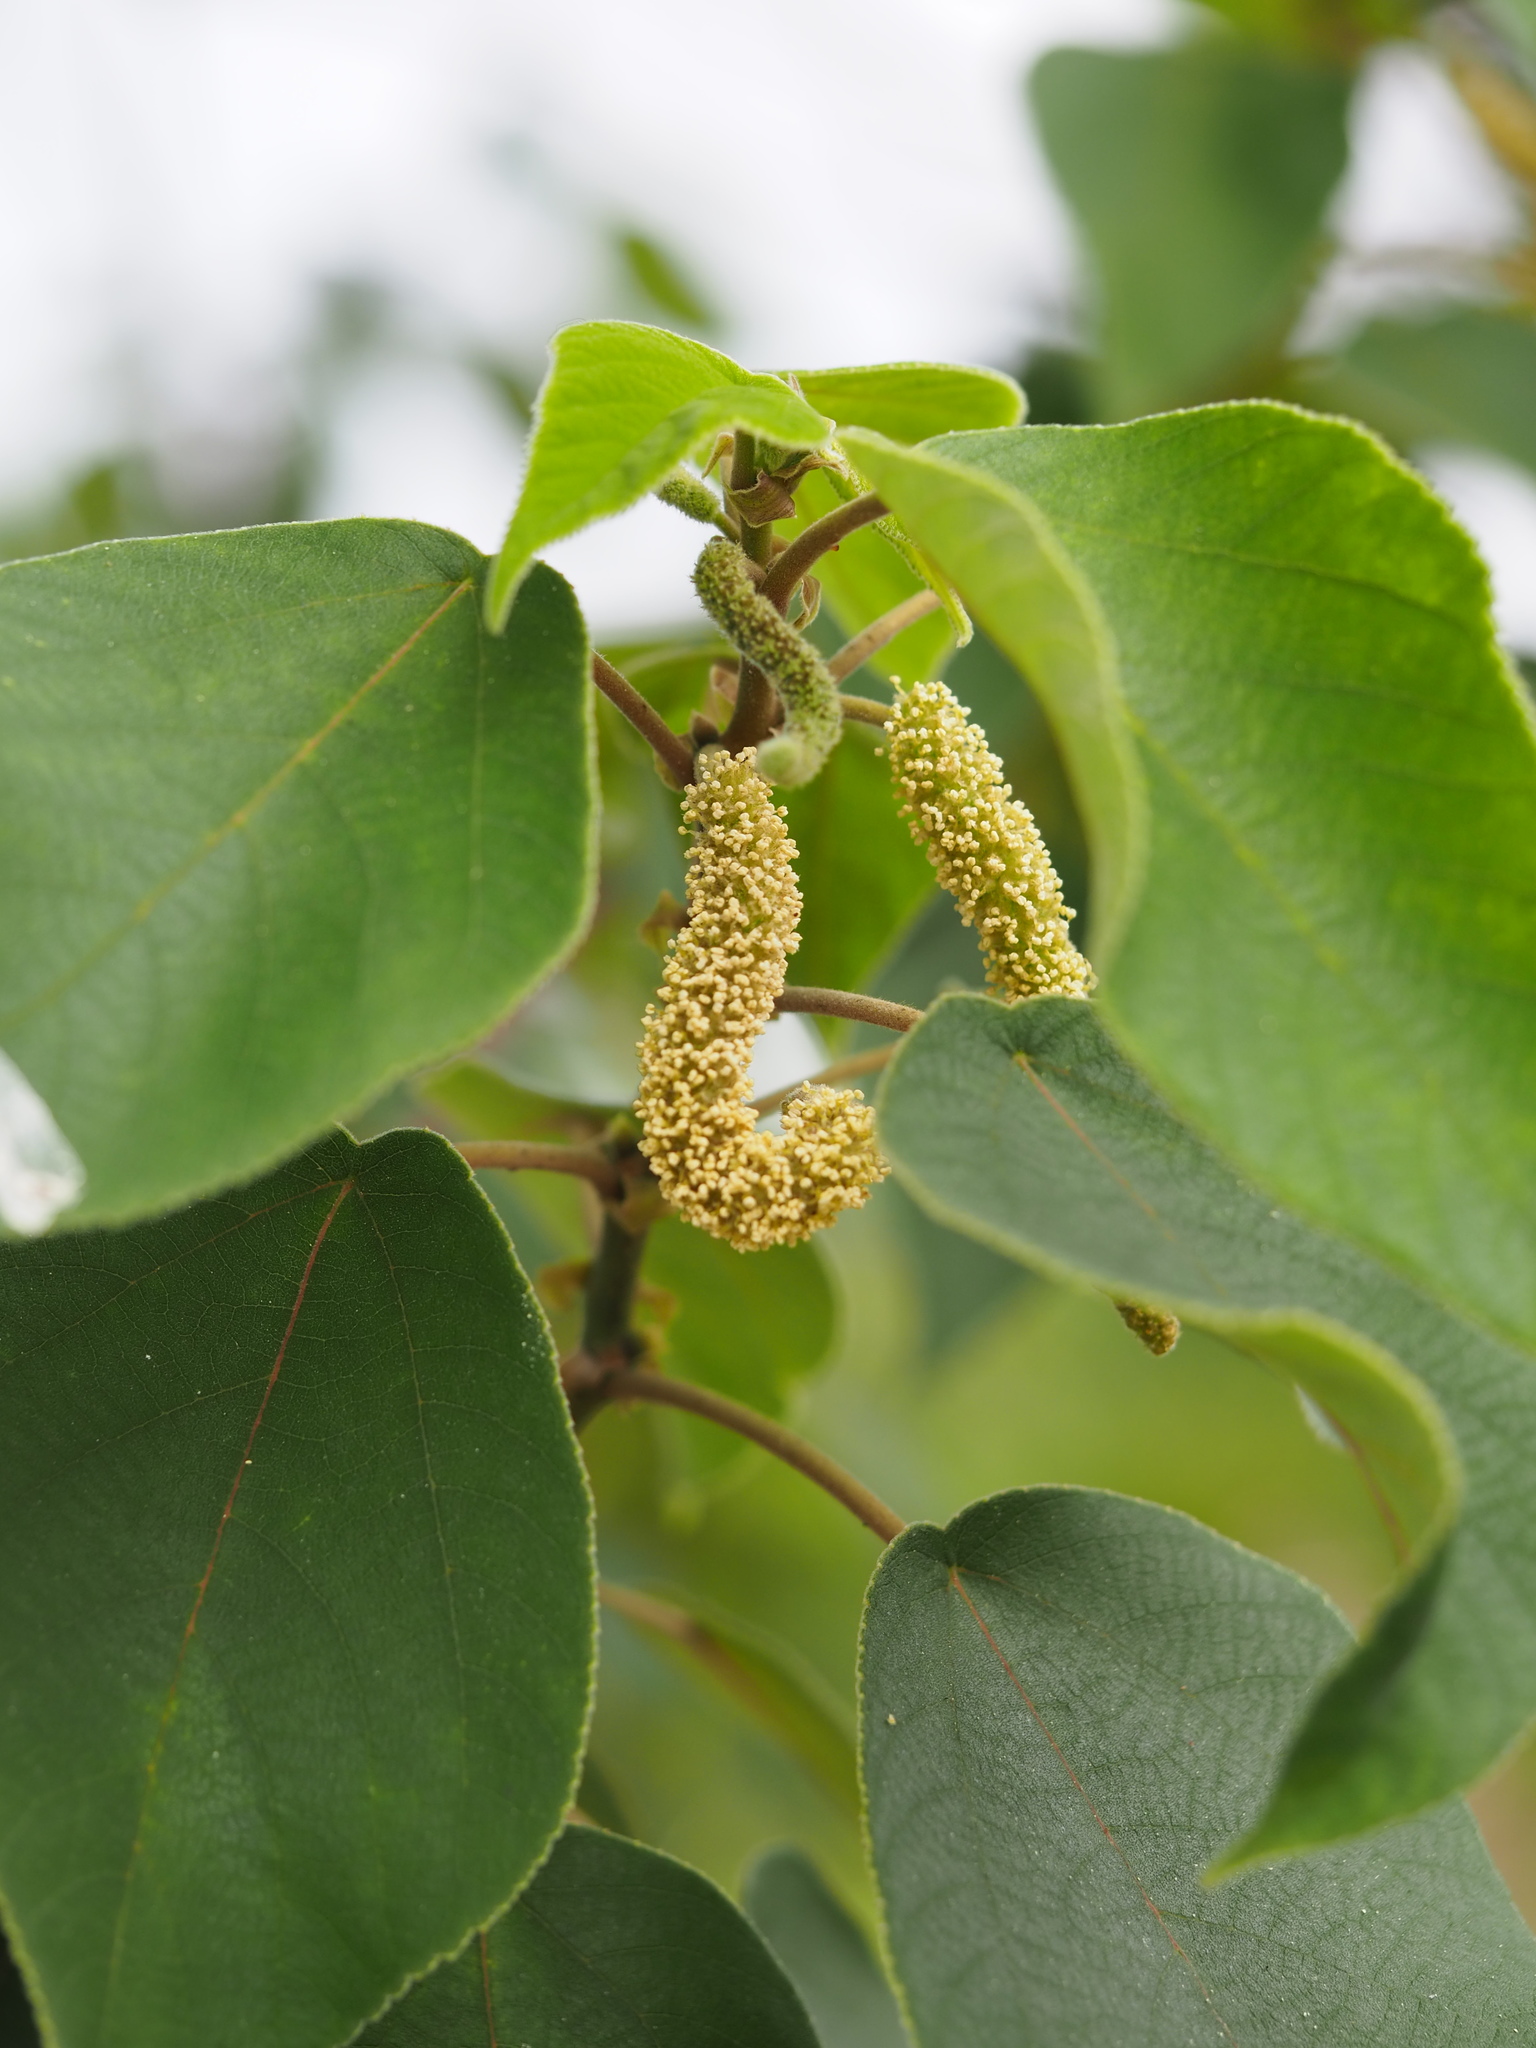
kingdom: Plantae
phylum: Tracheophyta
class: Magnoliopsida
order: Rosales
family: Moraceae
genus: Broussonetia
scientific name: Broussonetia papyrifera
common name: Paper mulberry
